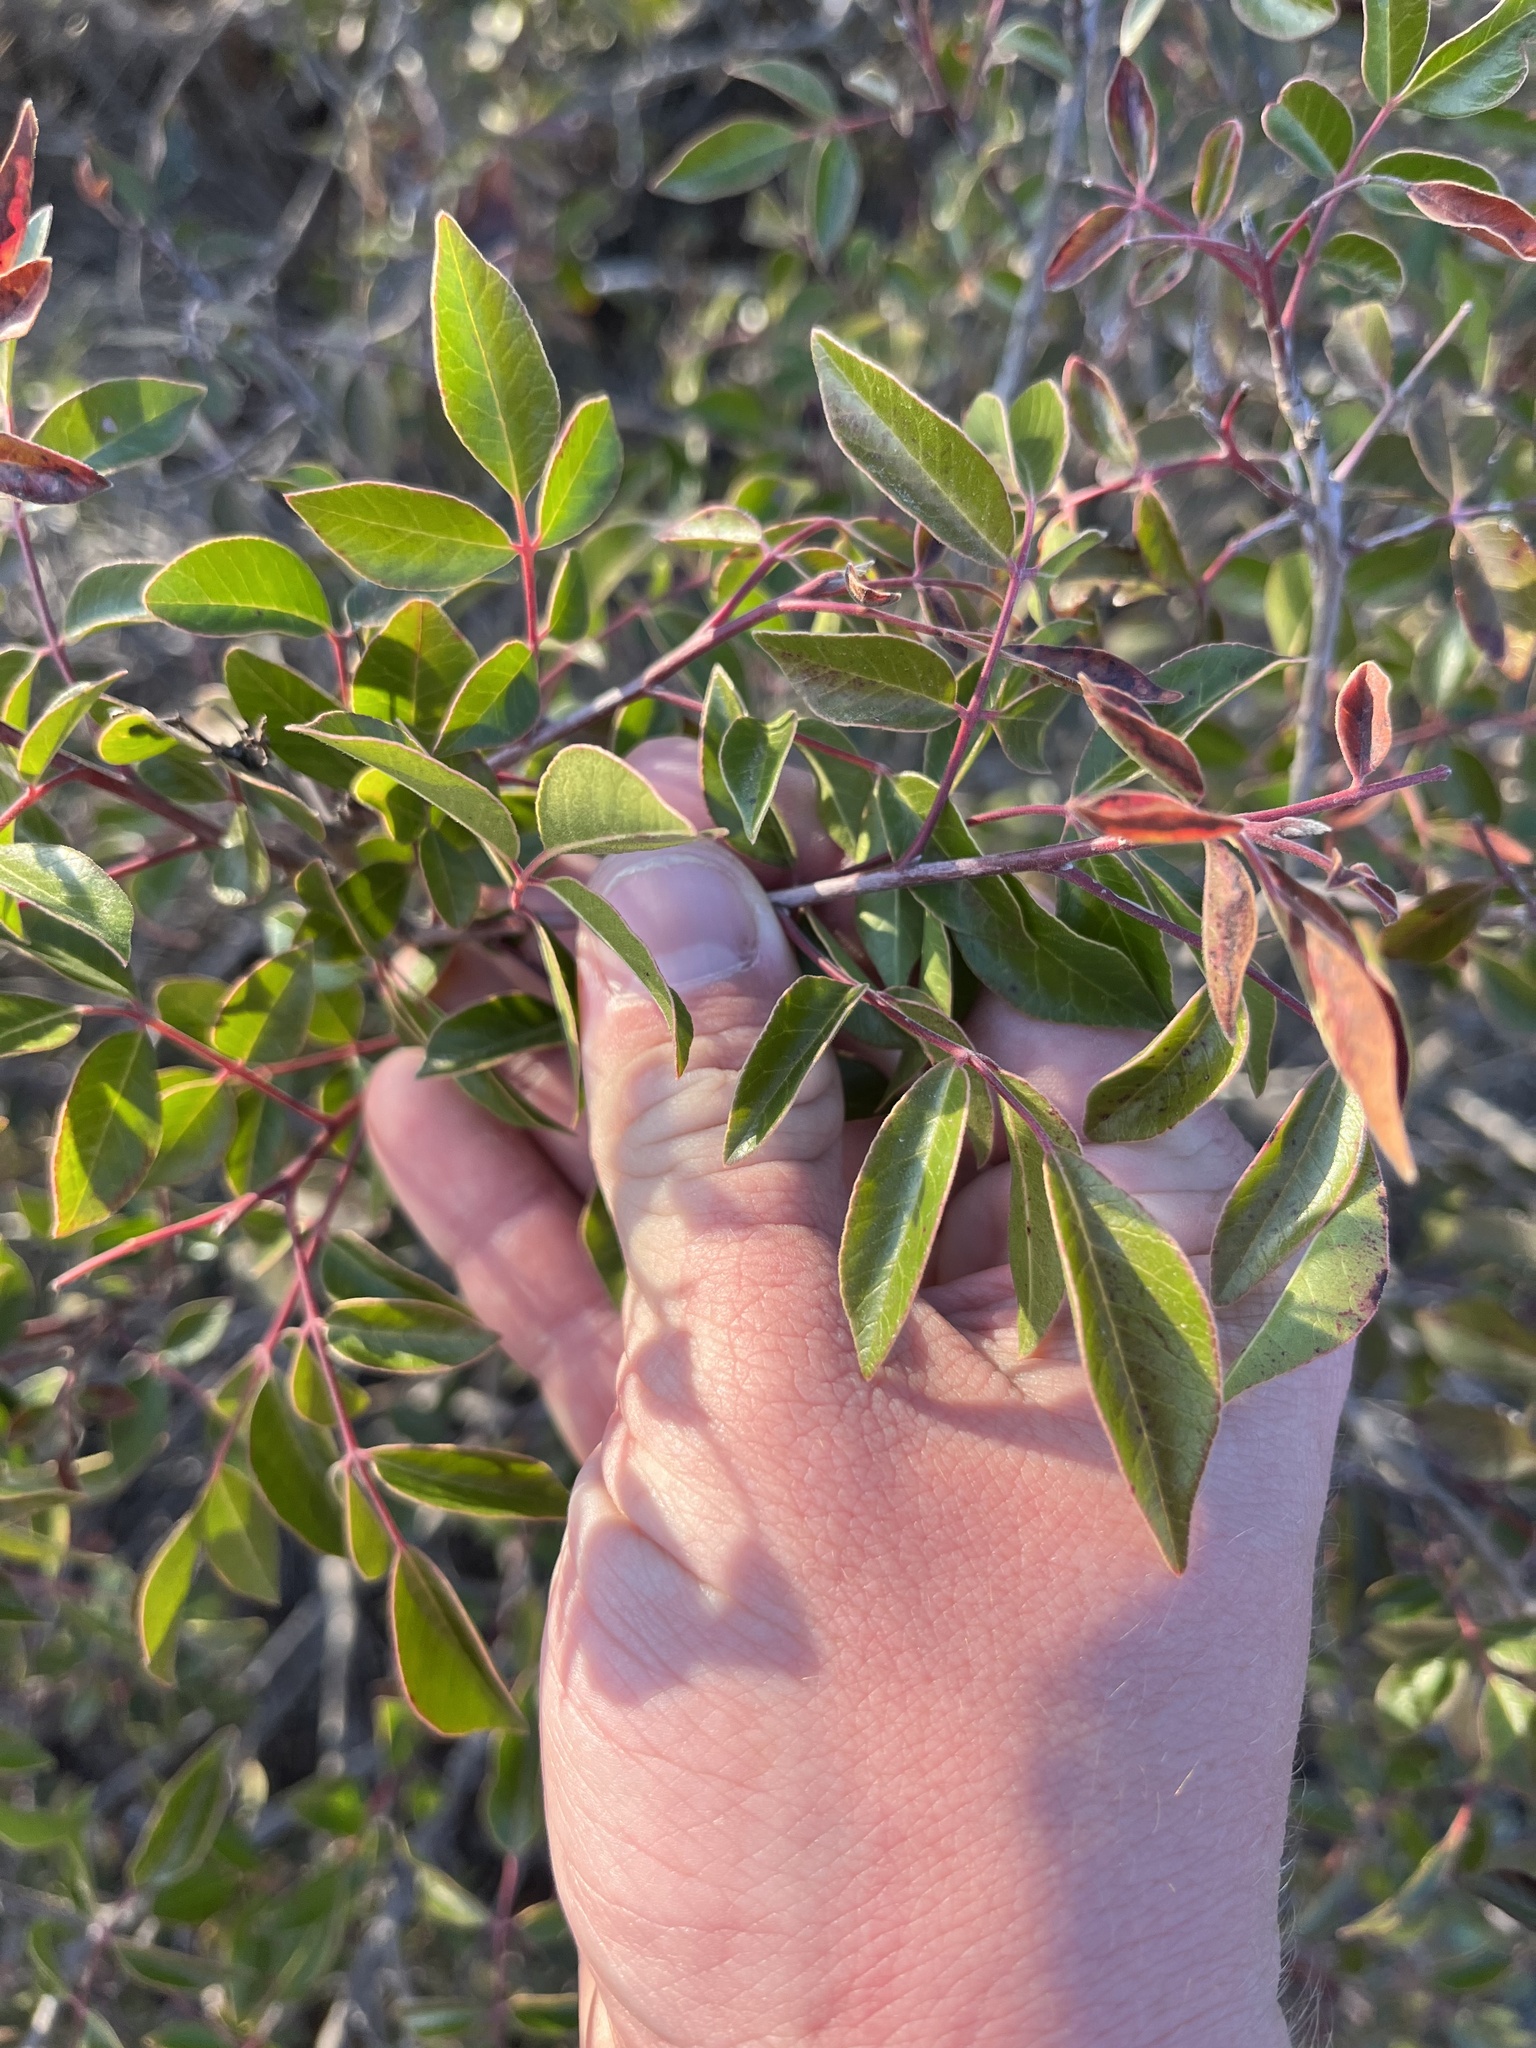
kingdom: Plantae
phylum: Tracheophyta
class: Magnoliopsida
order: Sapindales
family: Anacardiaceae
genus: Rhus
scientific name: Rhus virens
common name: Evergreen sumac
